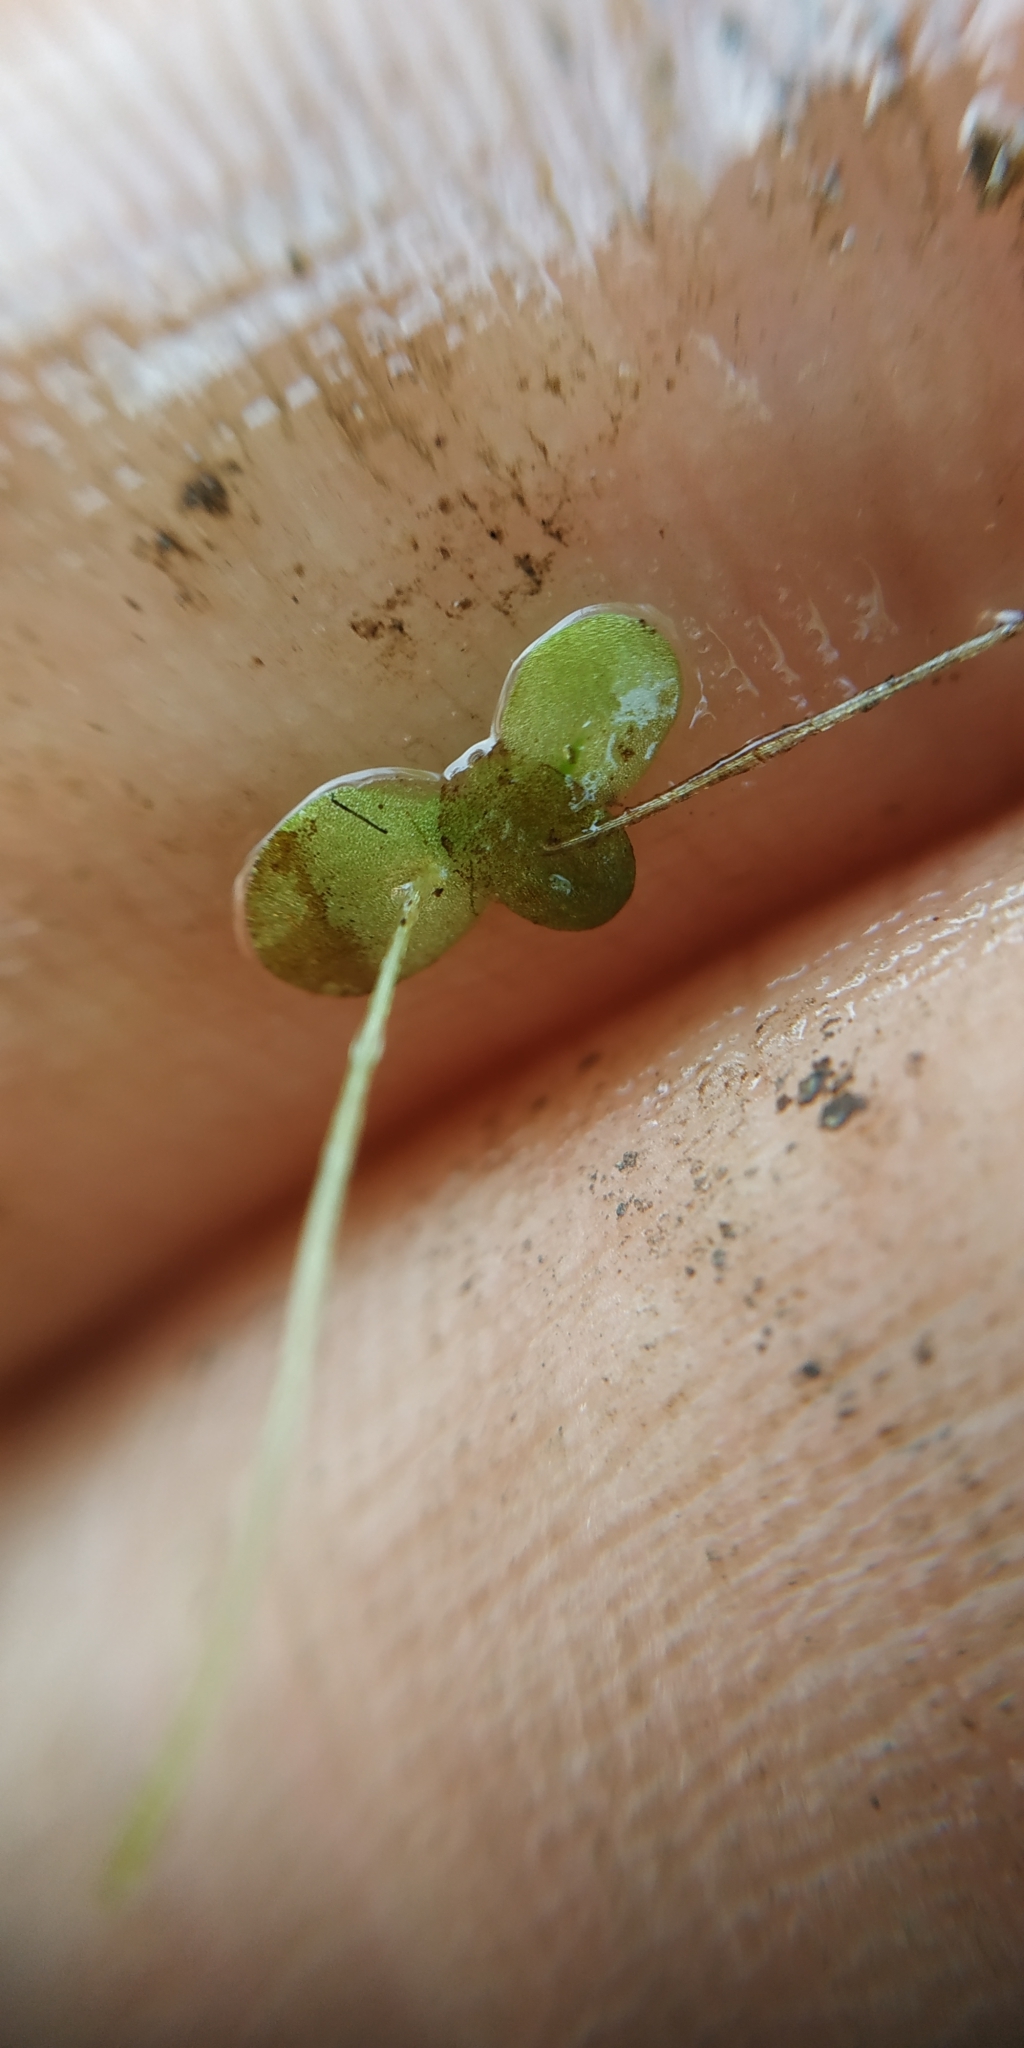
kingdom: Plantae
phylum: Tracheophyta
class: Liliopsida
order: Alismatales
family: Araceae
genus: Lemna
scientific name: Lemna minor
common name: Common duckweed
